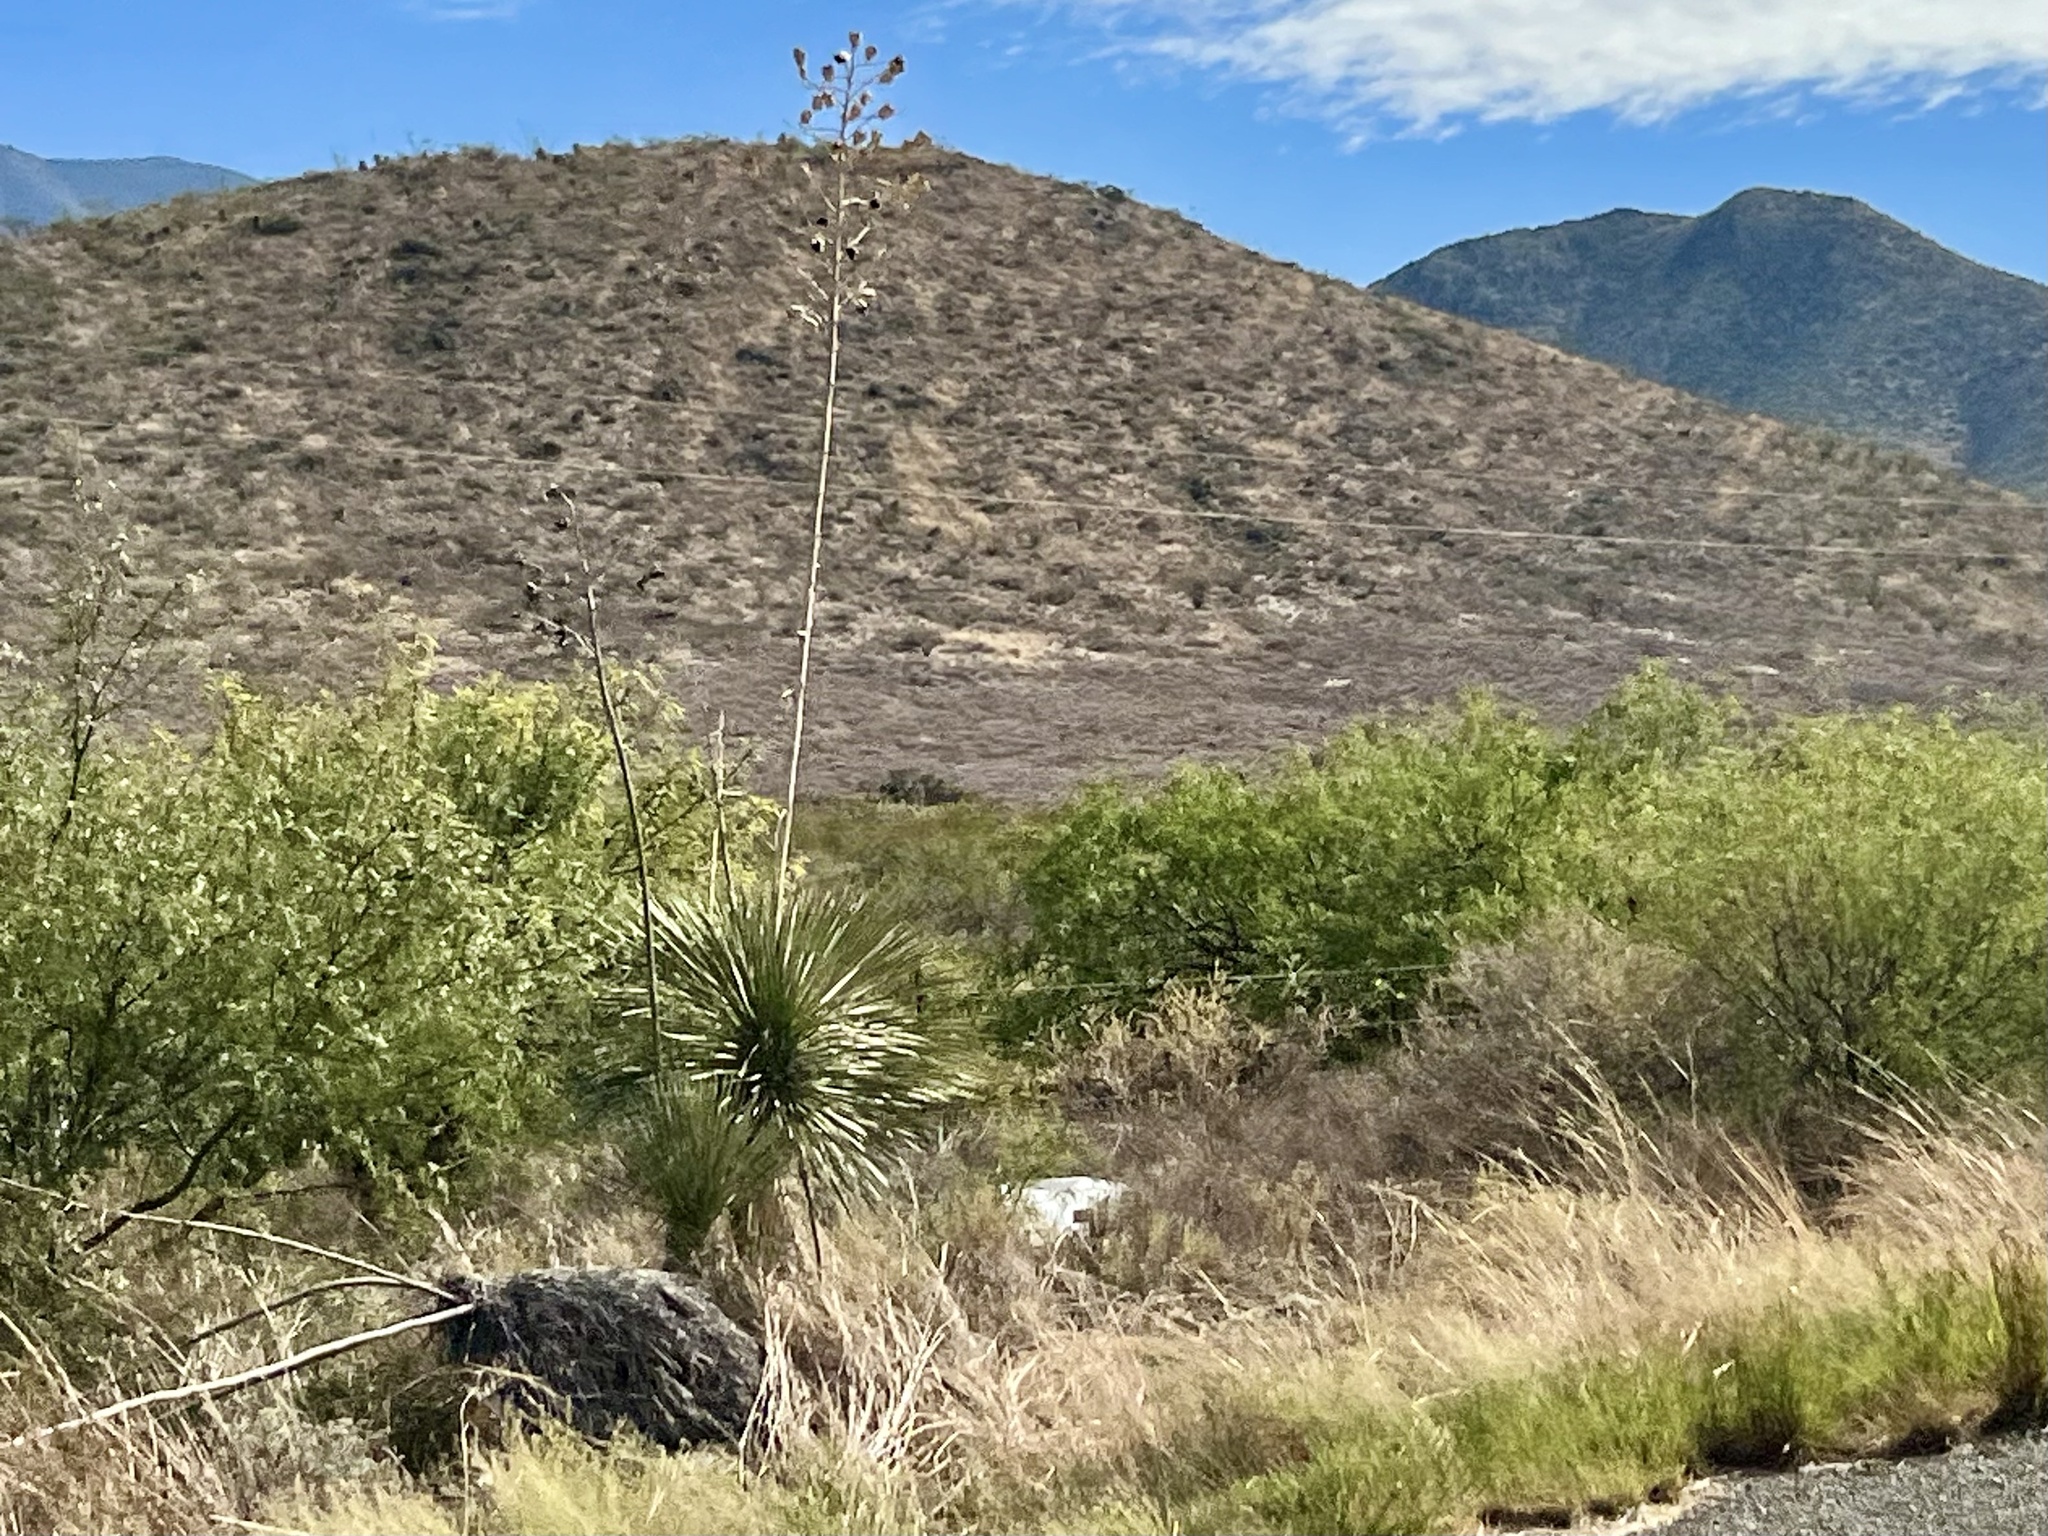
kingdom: Plantae
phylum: Tracheophyta
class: Liliopsida
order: Asparagales
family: Asparagaceae
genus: Yucca
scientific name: Yucca elata
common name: Palmella
